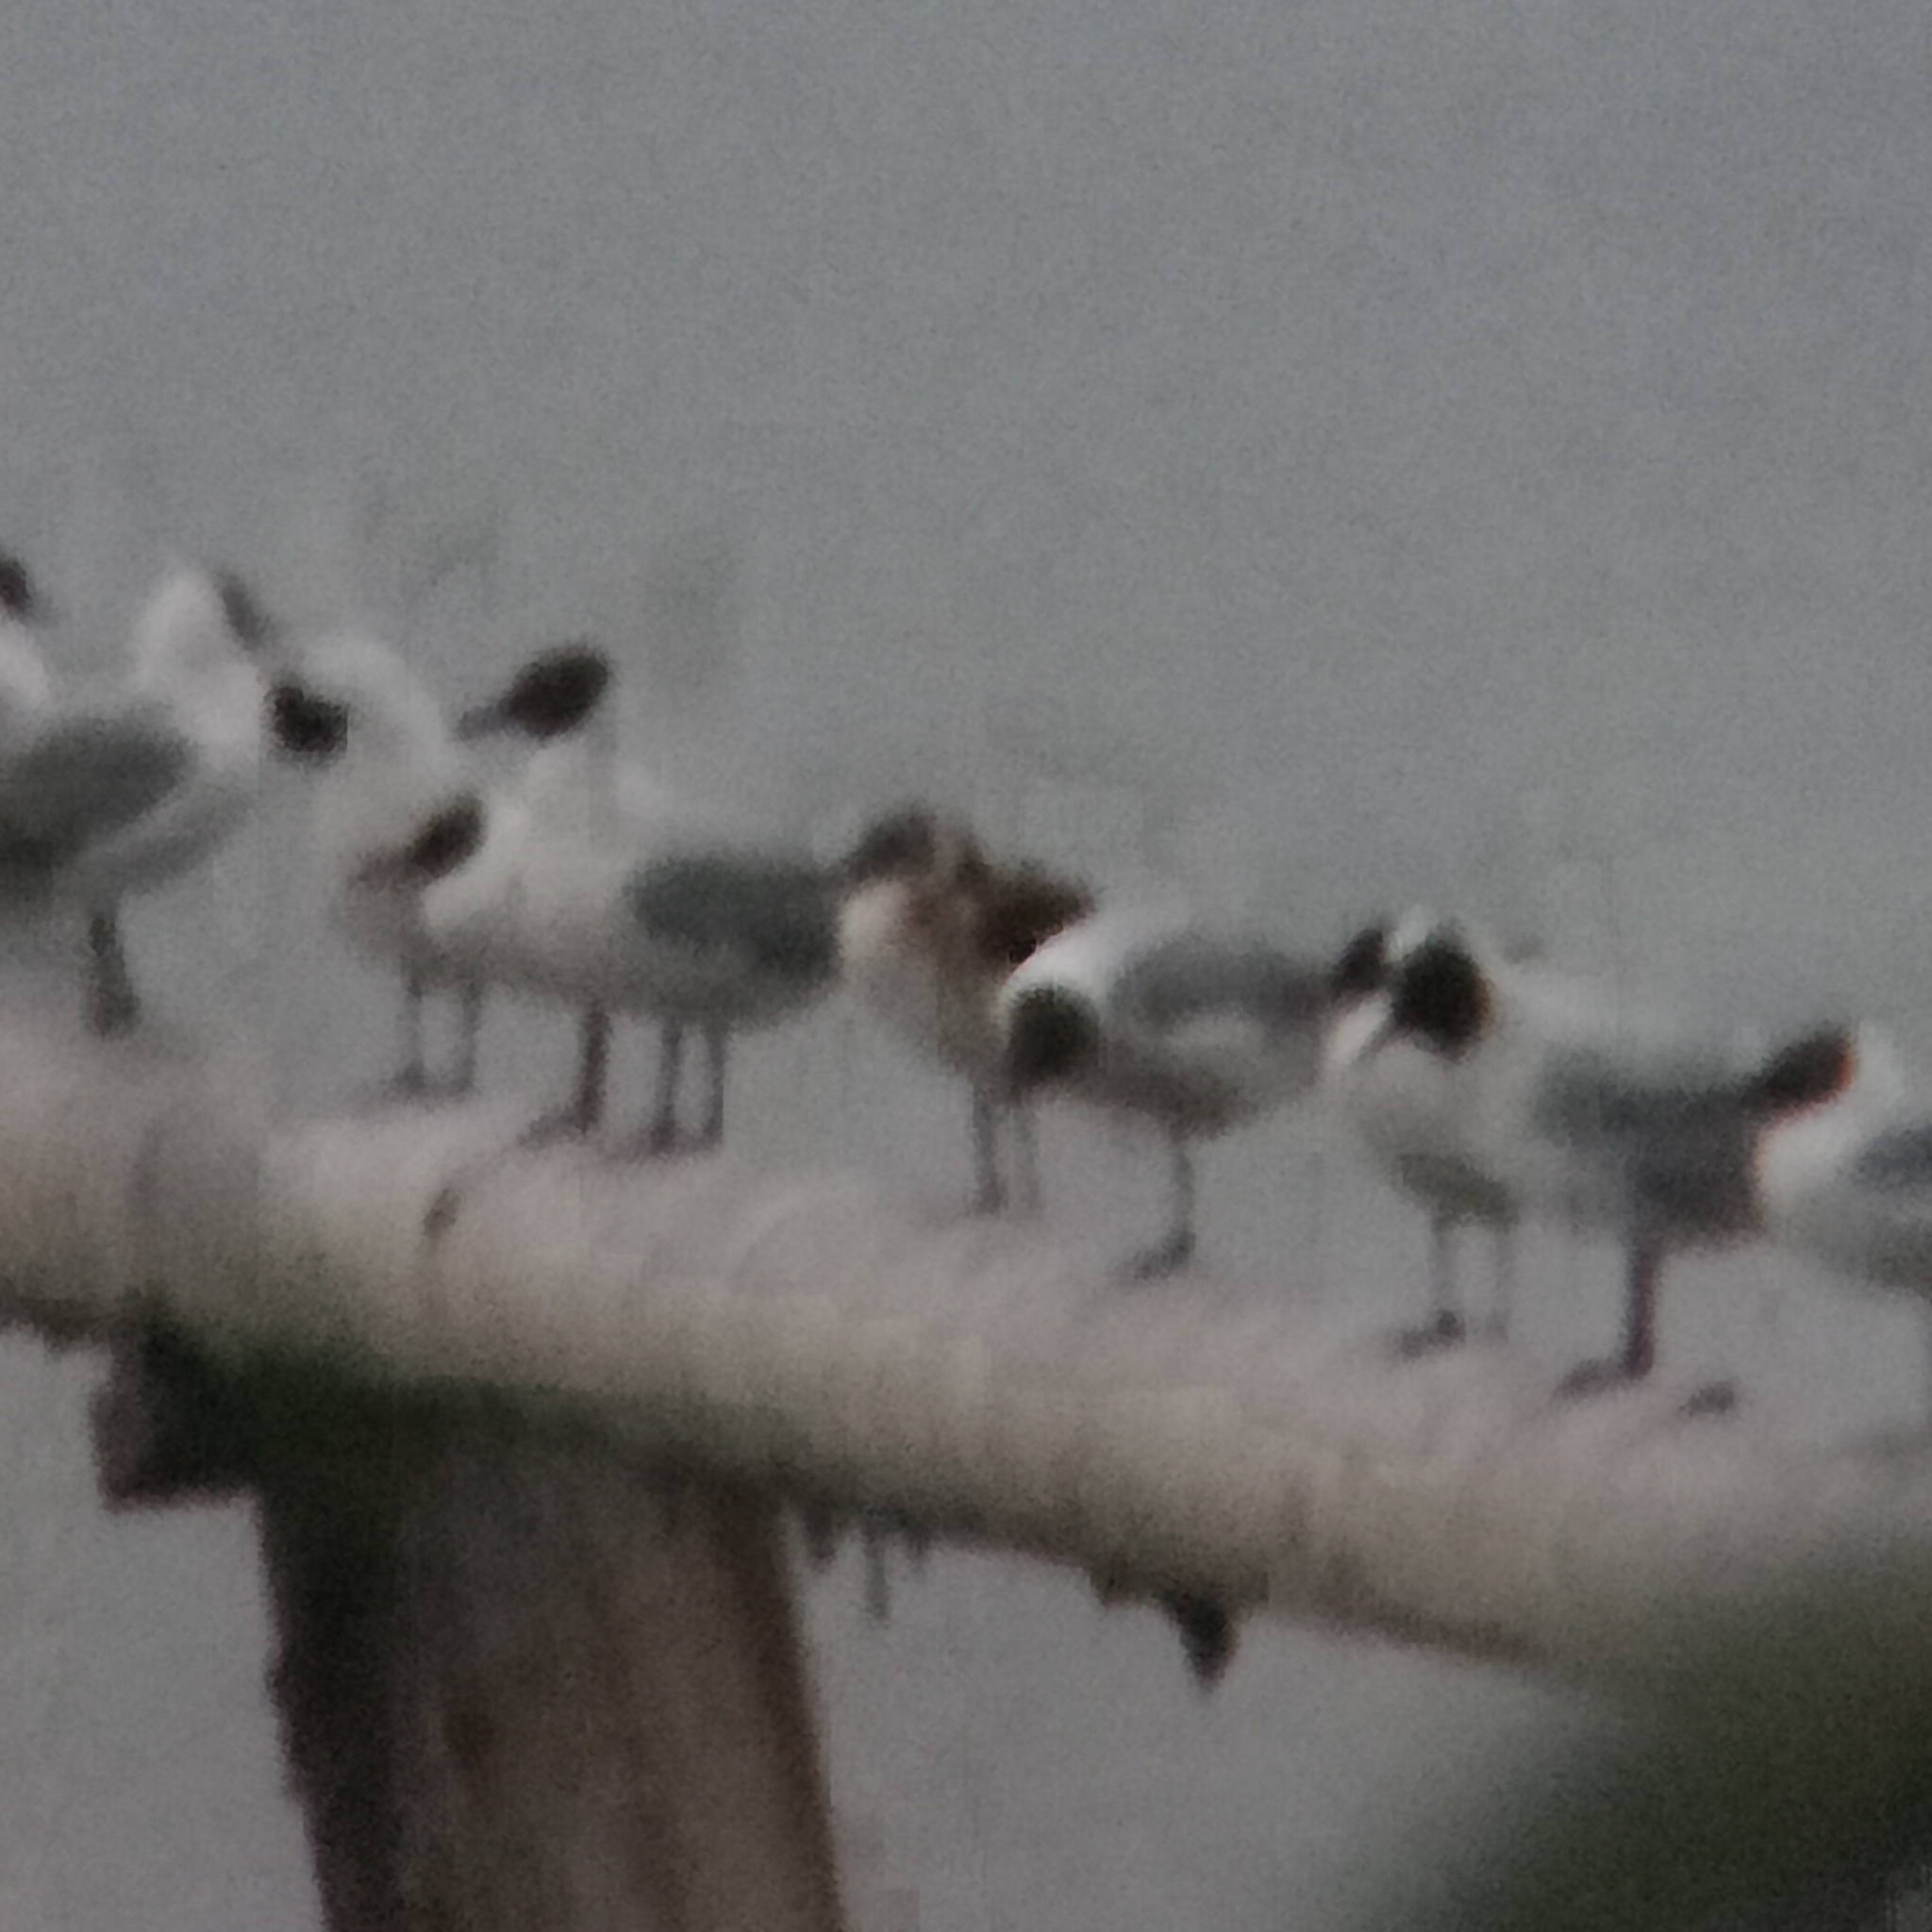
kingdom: Animalia
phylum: Chordata
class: Aves
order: Charadriiformes
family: Laridae
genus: Chroicocephalus
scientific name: Chroicocephalus ridibundus
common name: Black-headed gull
